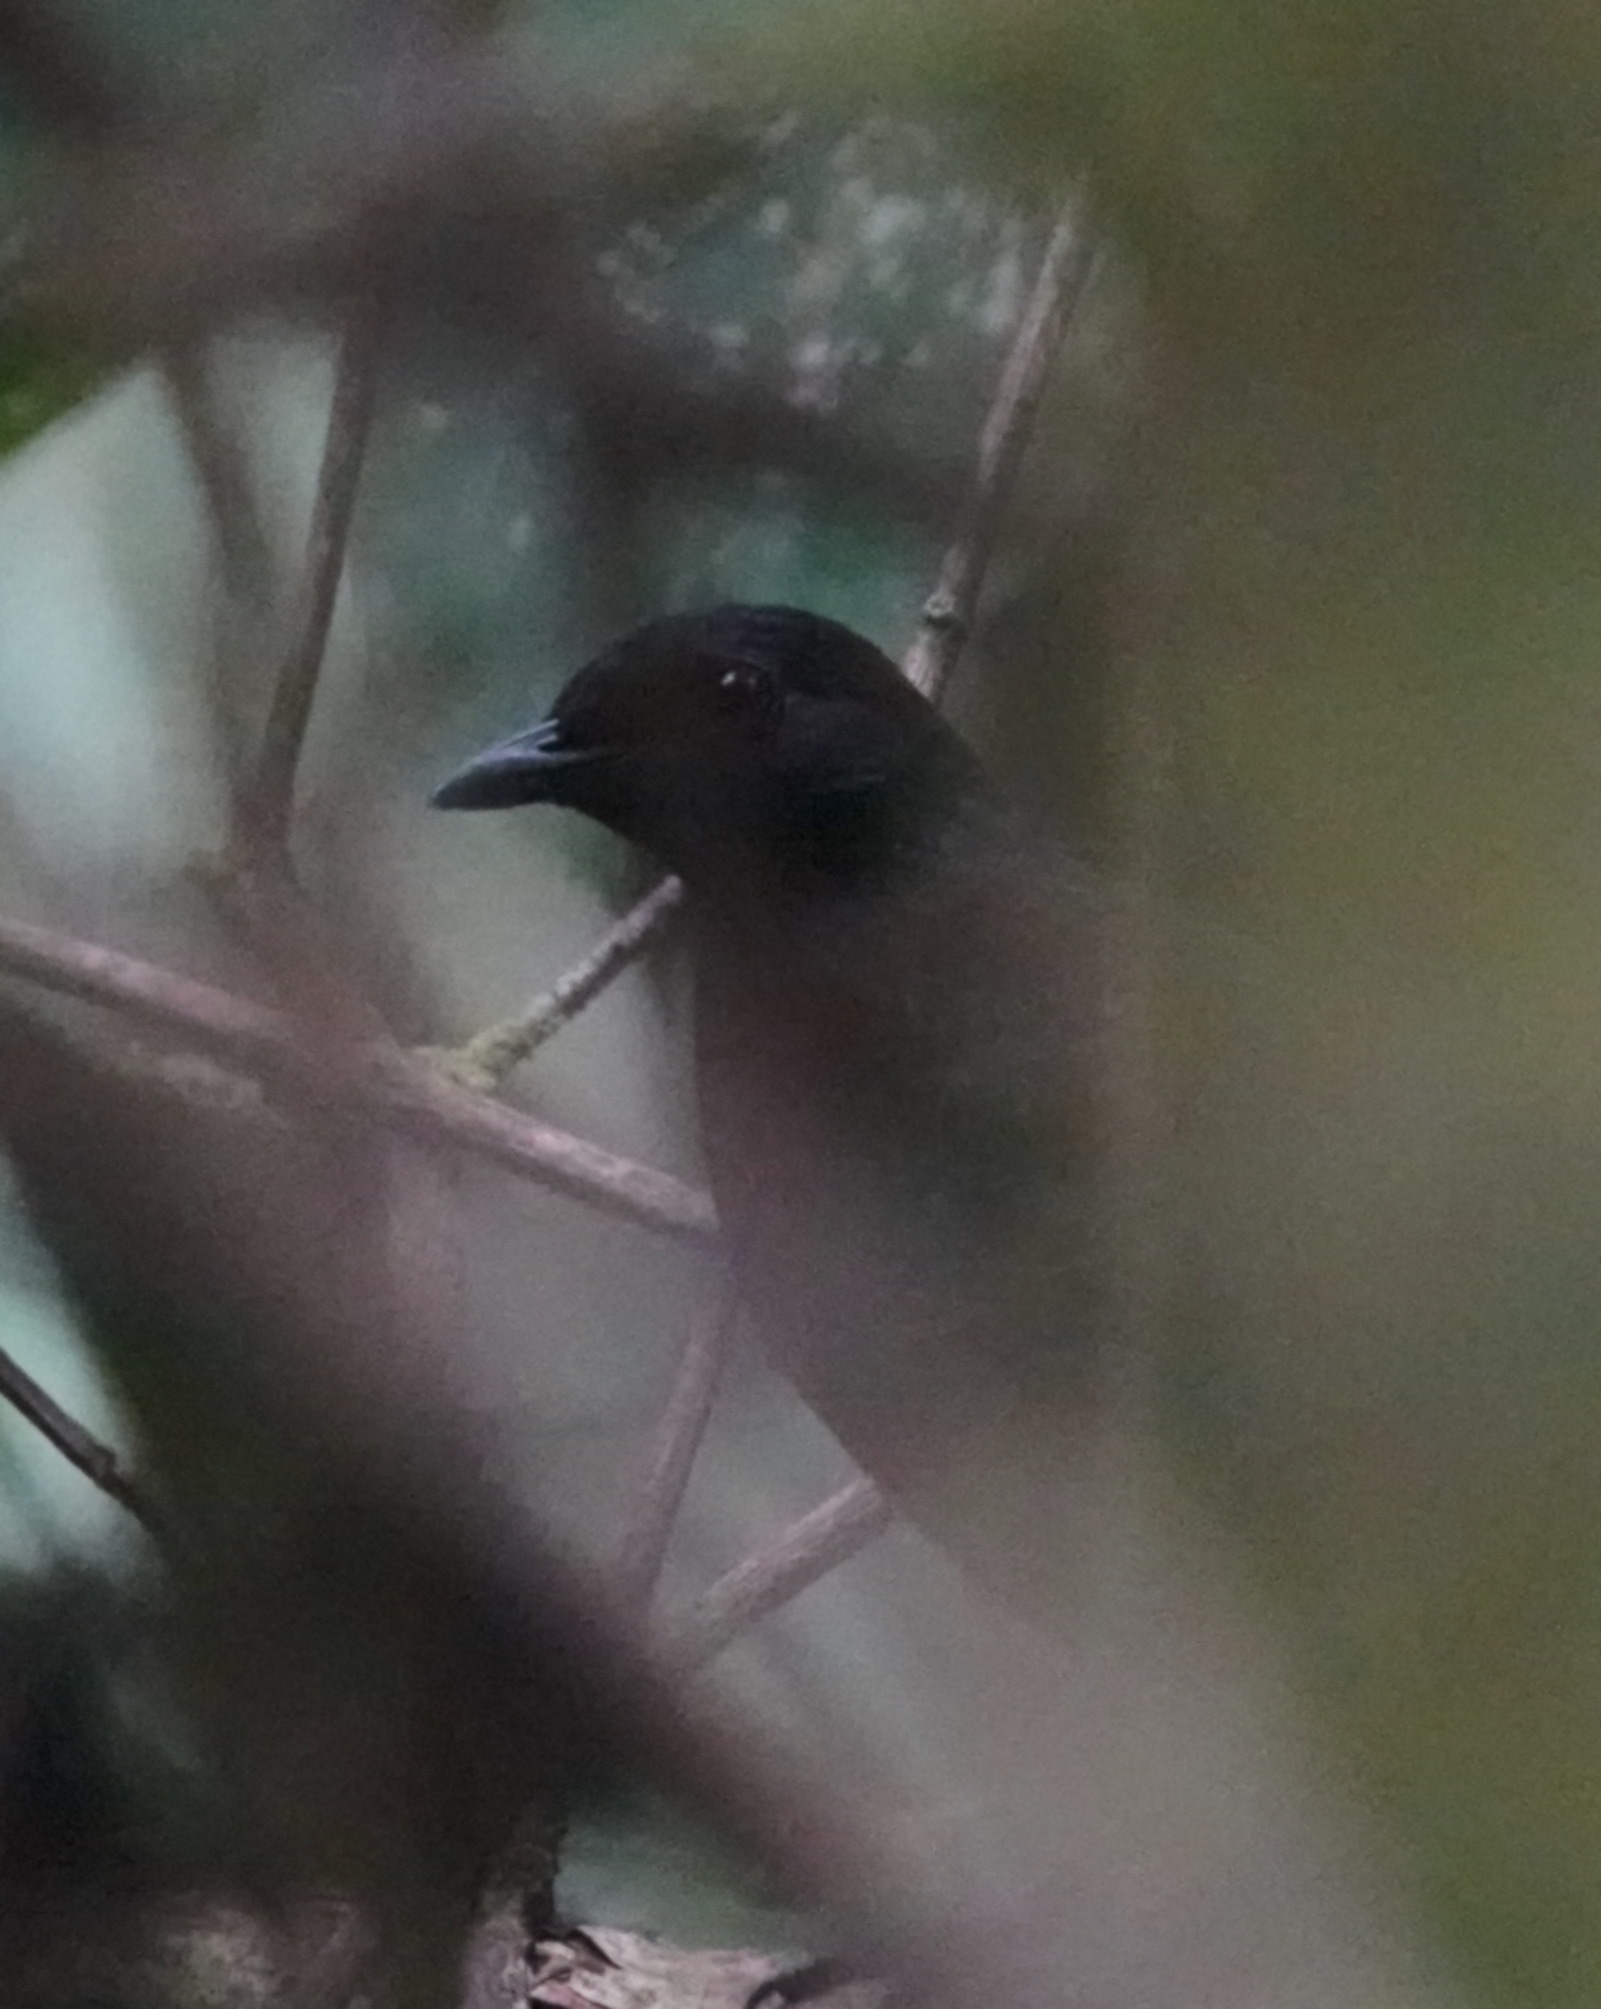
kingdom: Animalia
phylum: Chordata
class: Aves
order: Passeriformes
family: Formicariidae
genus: Formicarius
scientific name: Formicarius rufipectus
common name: Rufous-breasted antthrush
